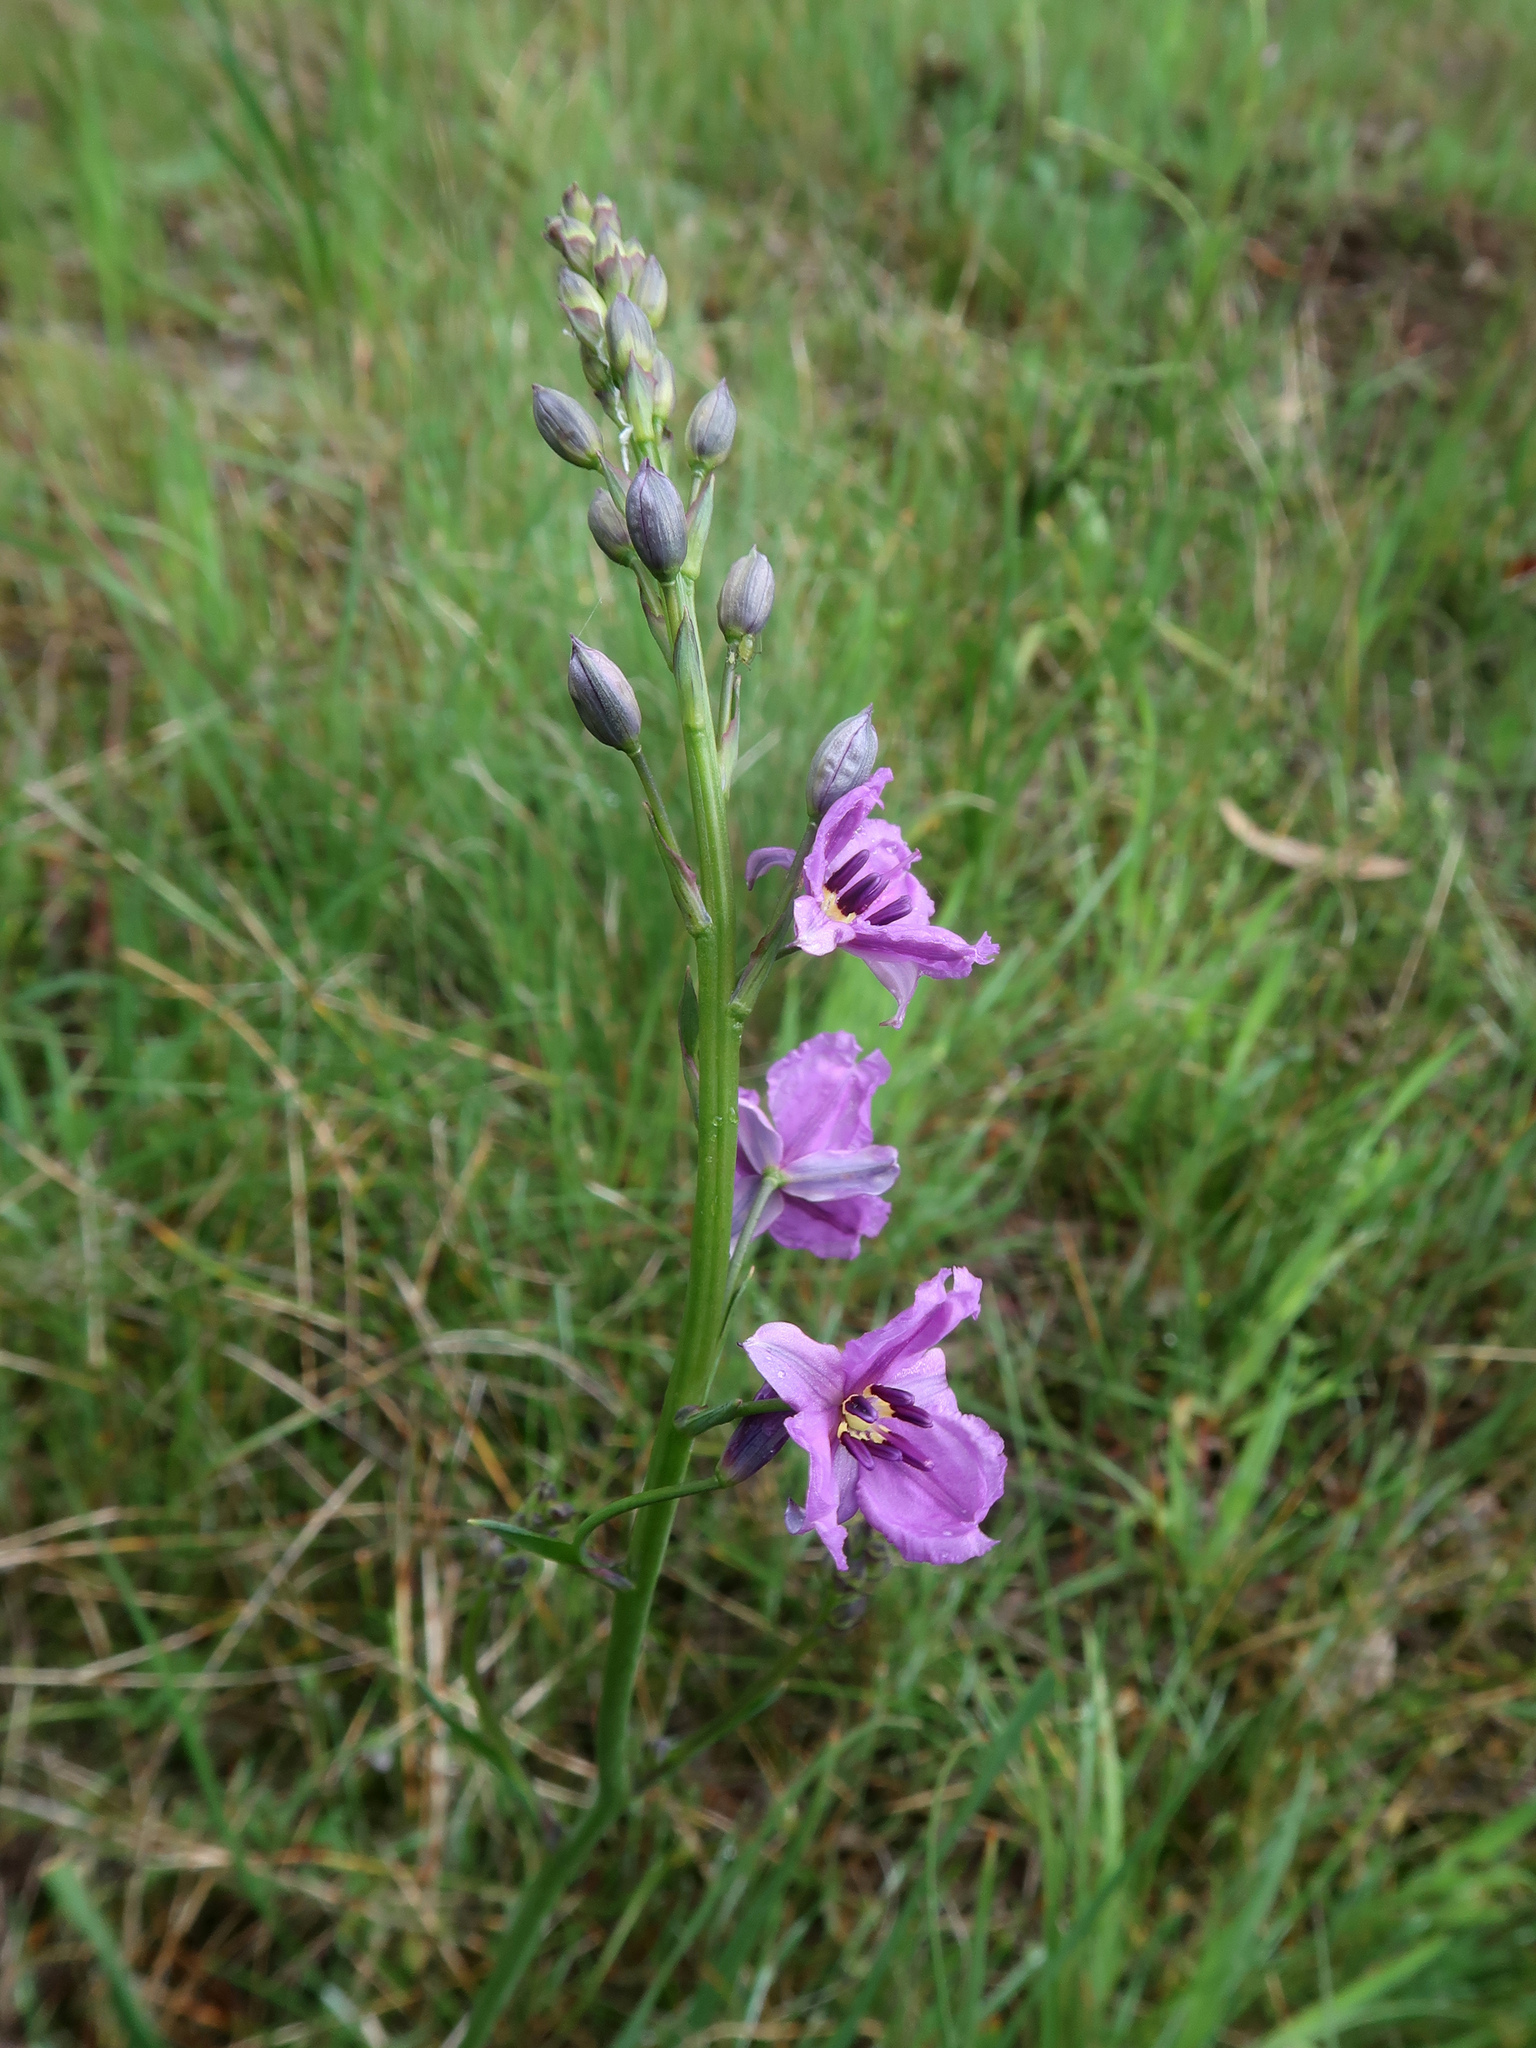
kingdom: Plantae
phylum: Tracheophyta
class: Liliopsida
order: Asparagales
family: Asparagaceae
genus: Arthropodium
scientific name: Arthropodium strictum
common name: Chocolate-lily
